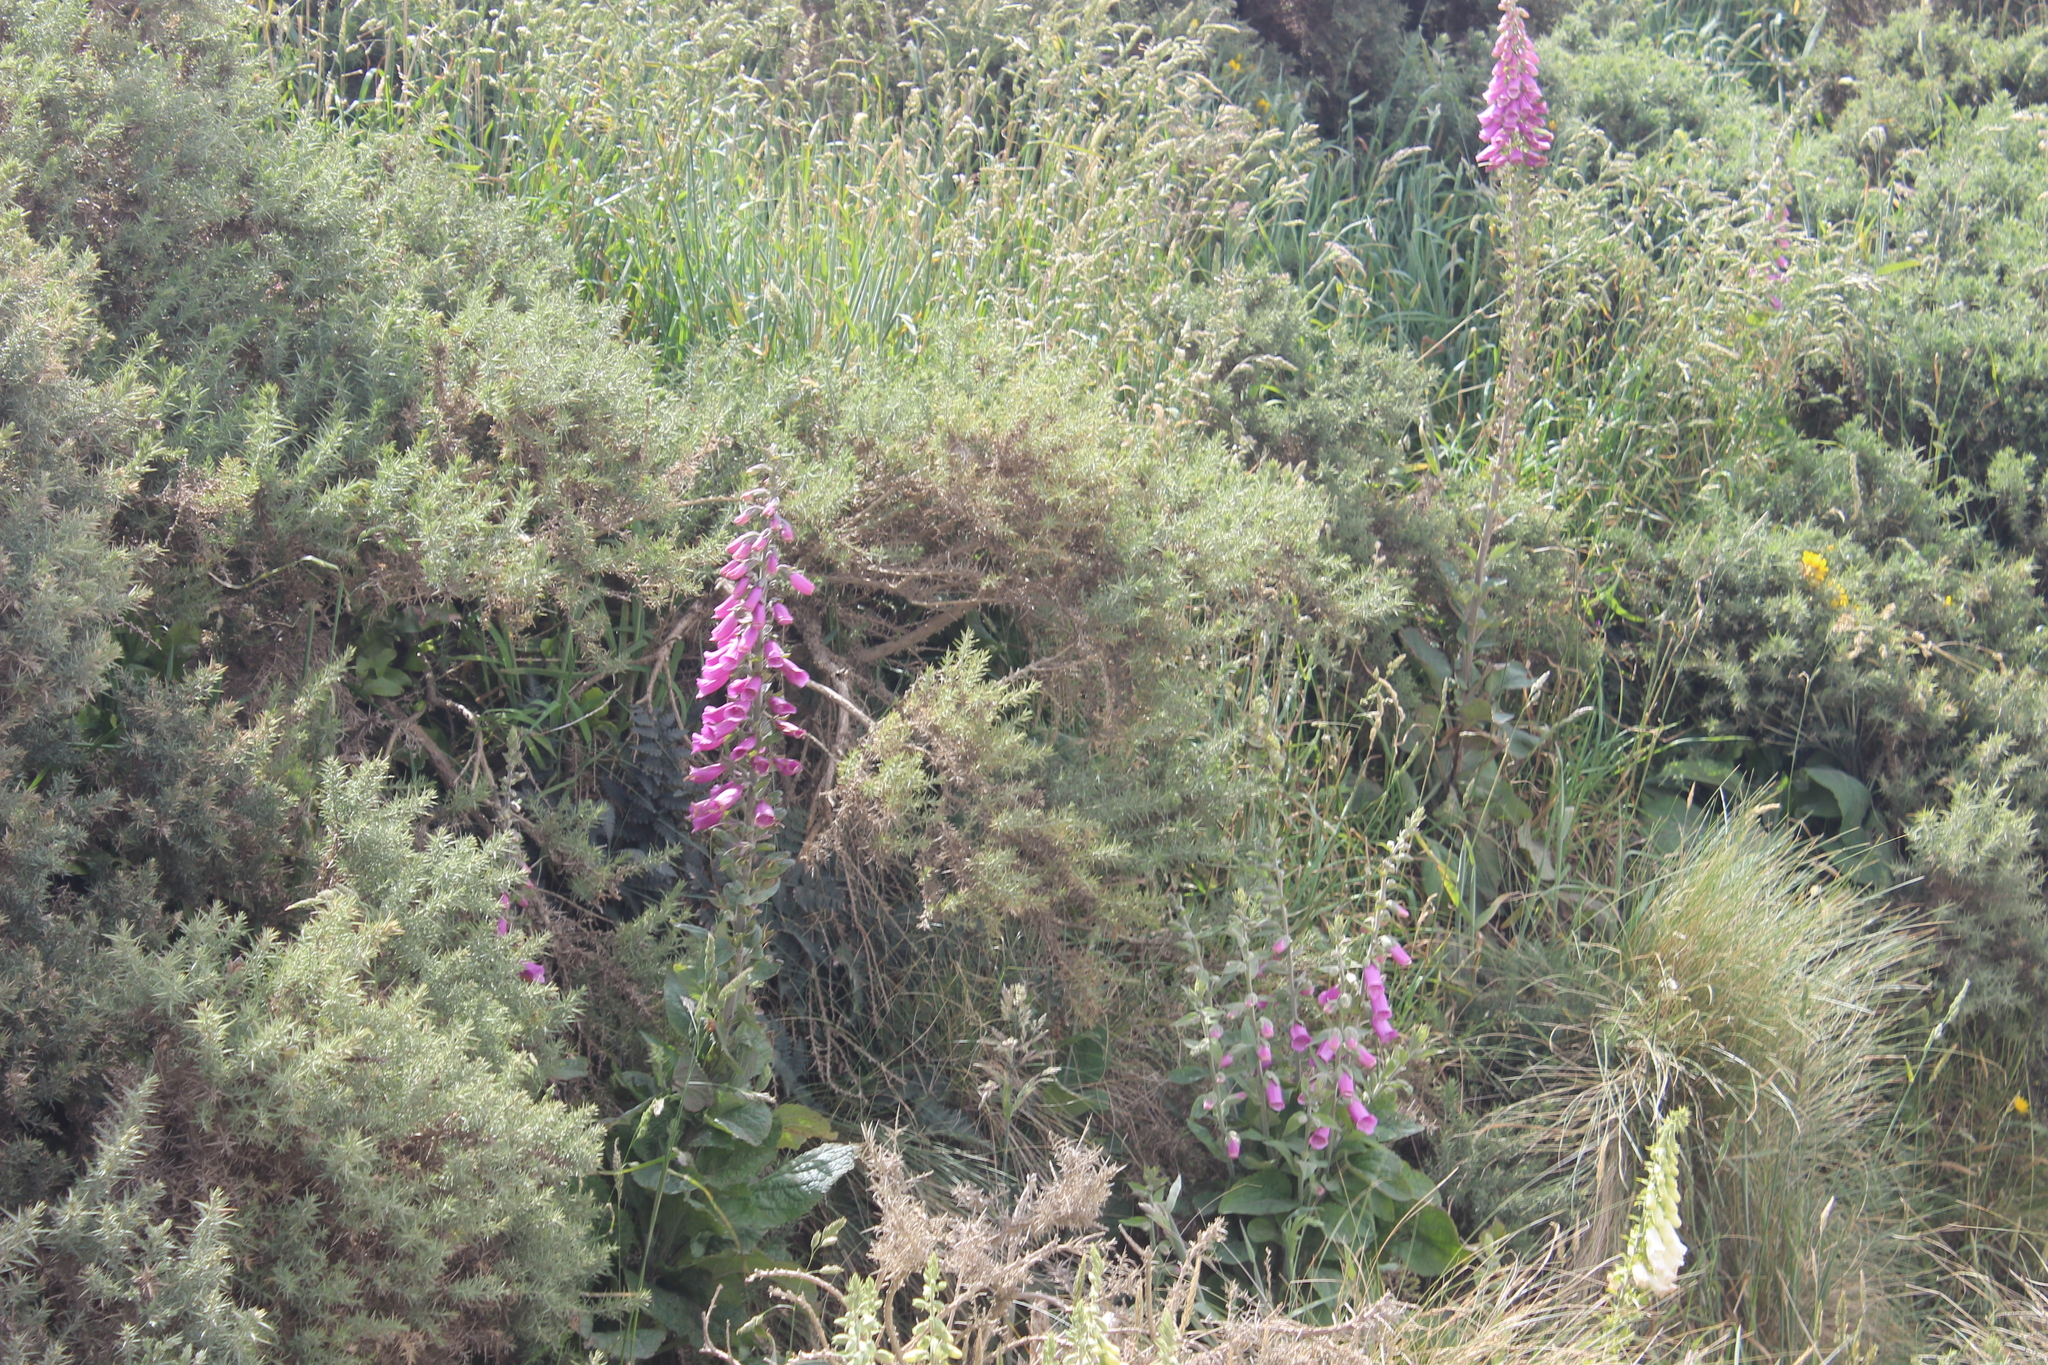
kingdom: Plantae
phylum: Tracheophyta
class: Magnoliopsida
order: Lamiales
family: Plantaginaceae
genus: Digitalis
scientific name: Digitalis purpurea
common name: Foxglove
